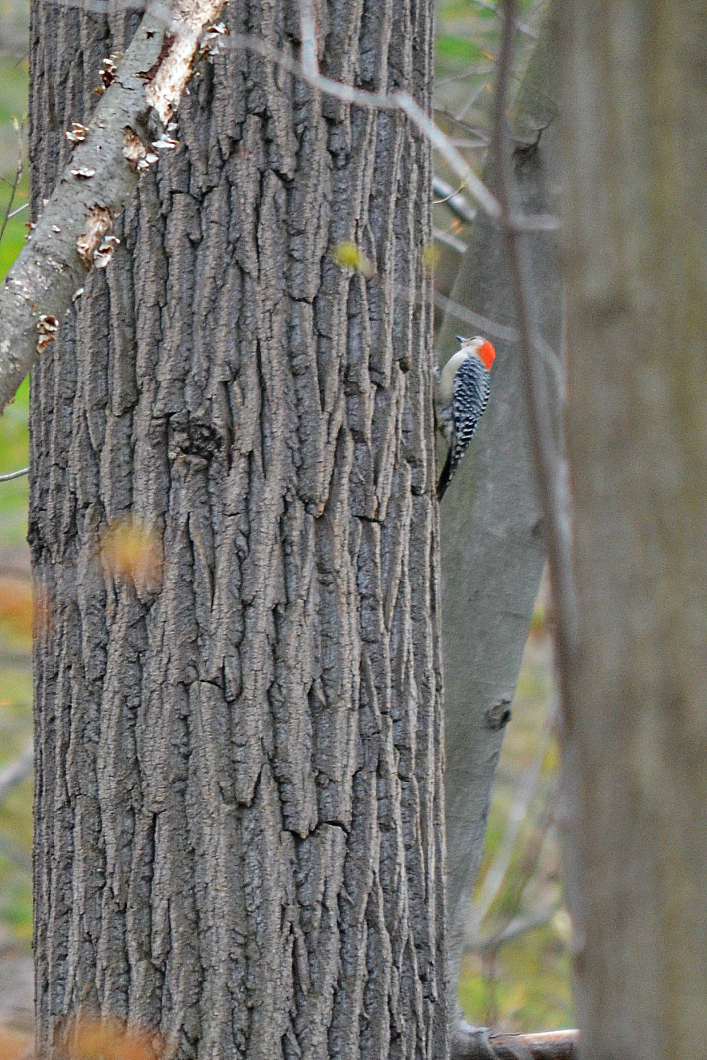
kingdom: Animalia
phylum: Chordata
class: Aves
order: Piciformes
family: Picidae
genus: Melanerpes
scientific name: Melanerpes carolinus
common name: Red-bellied woodpecker
